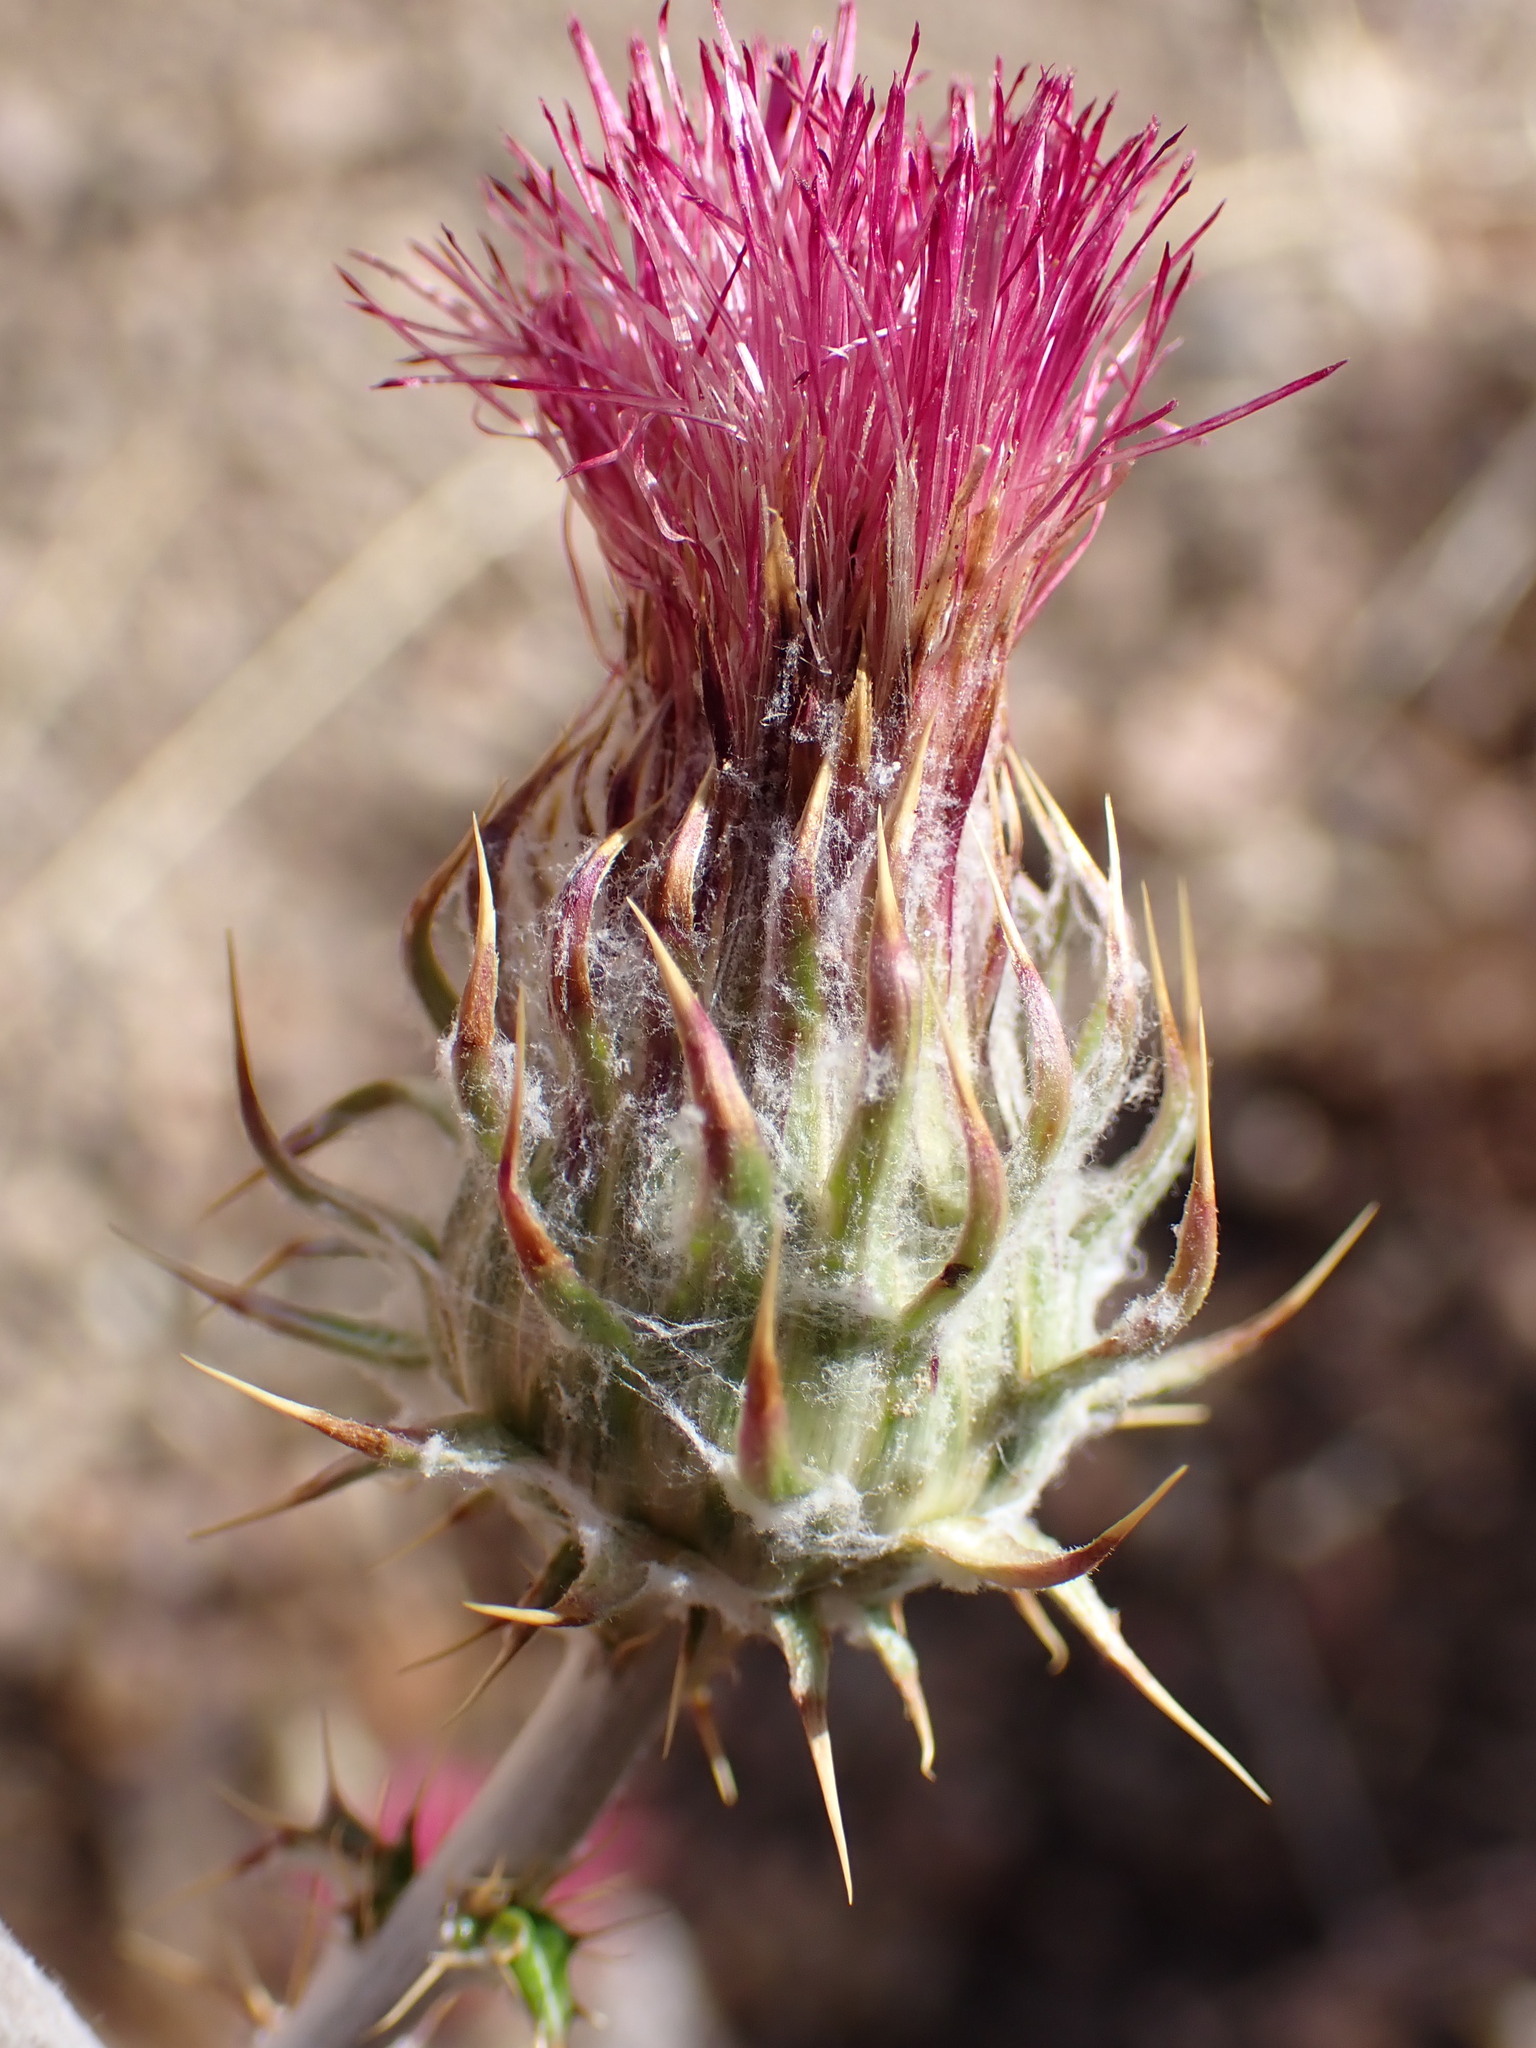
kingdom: Plantae
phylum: Tracheophyta
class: Magnoliopsida
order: Asterales
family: Asteraceae
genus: Cirsium
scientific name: Cirsium occidentale
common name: Western thistle
